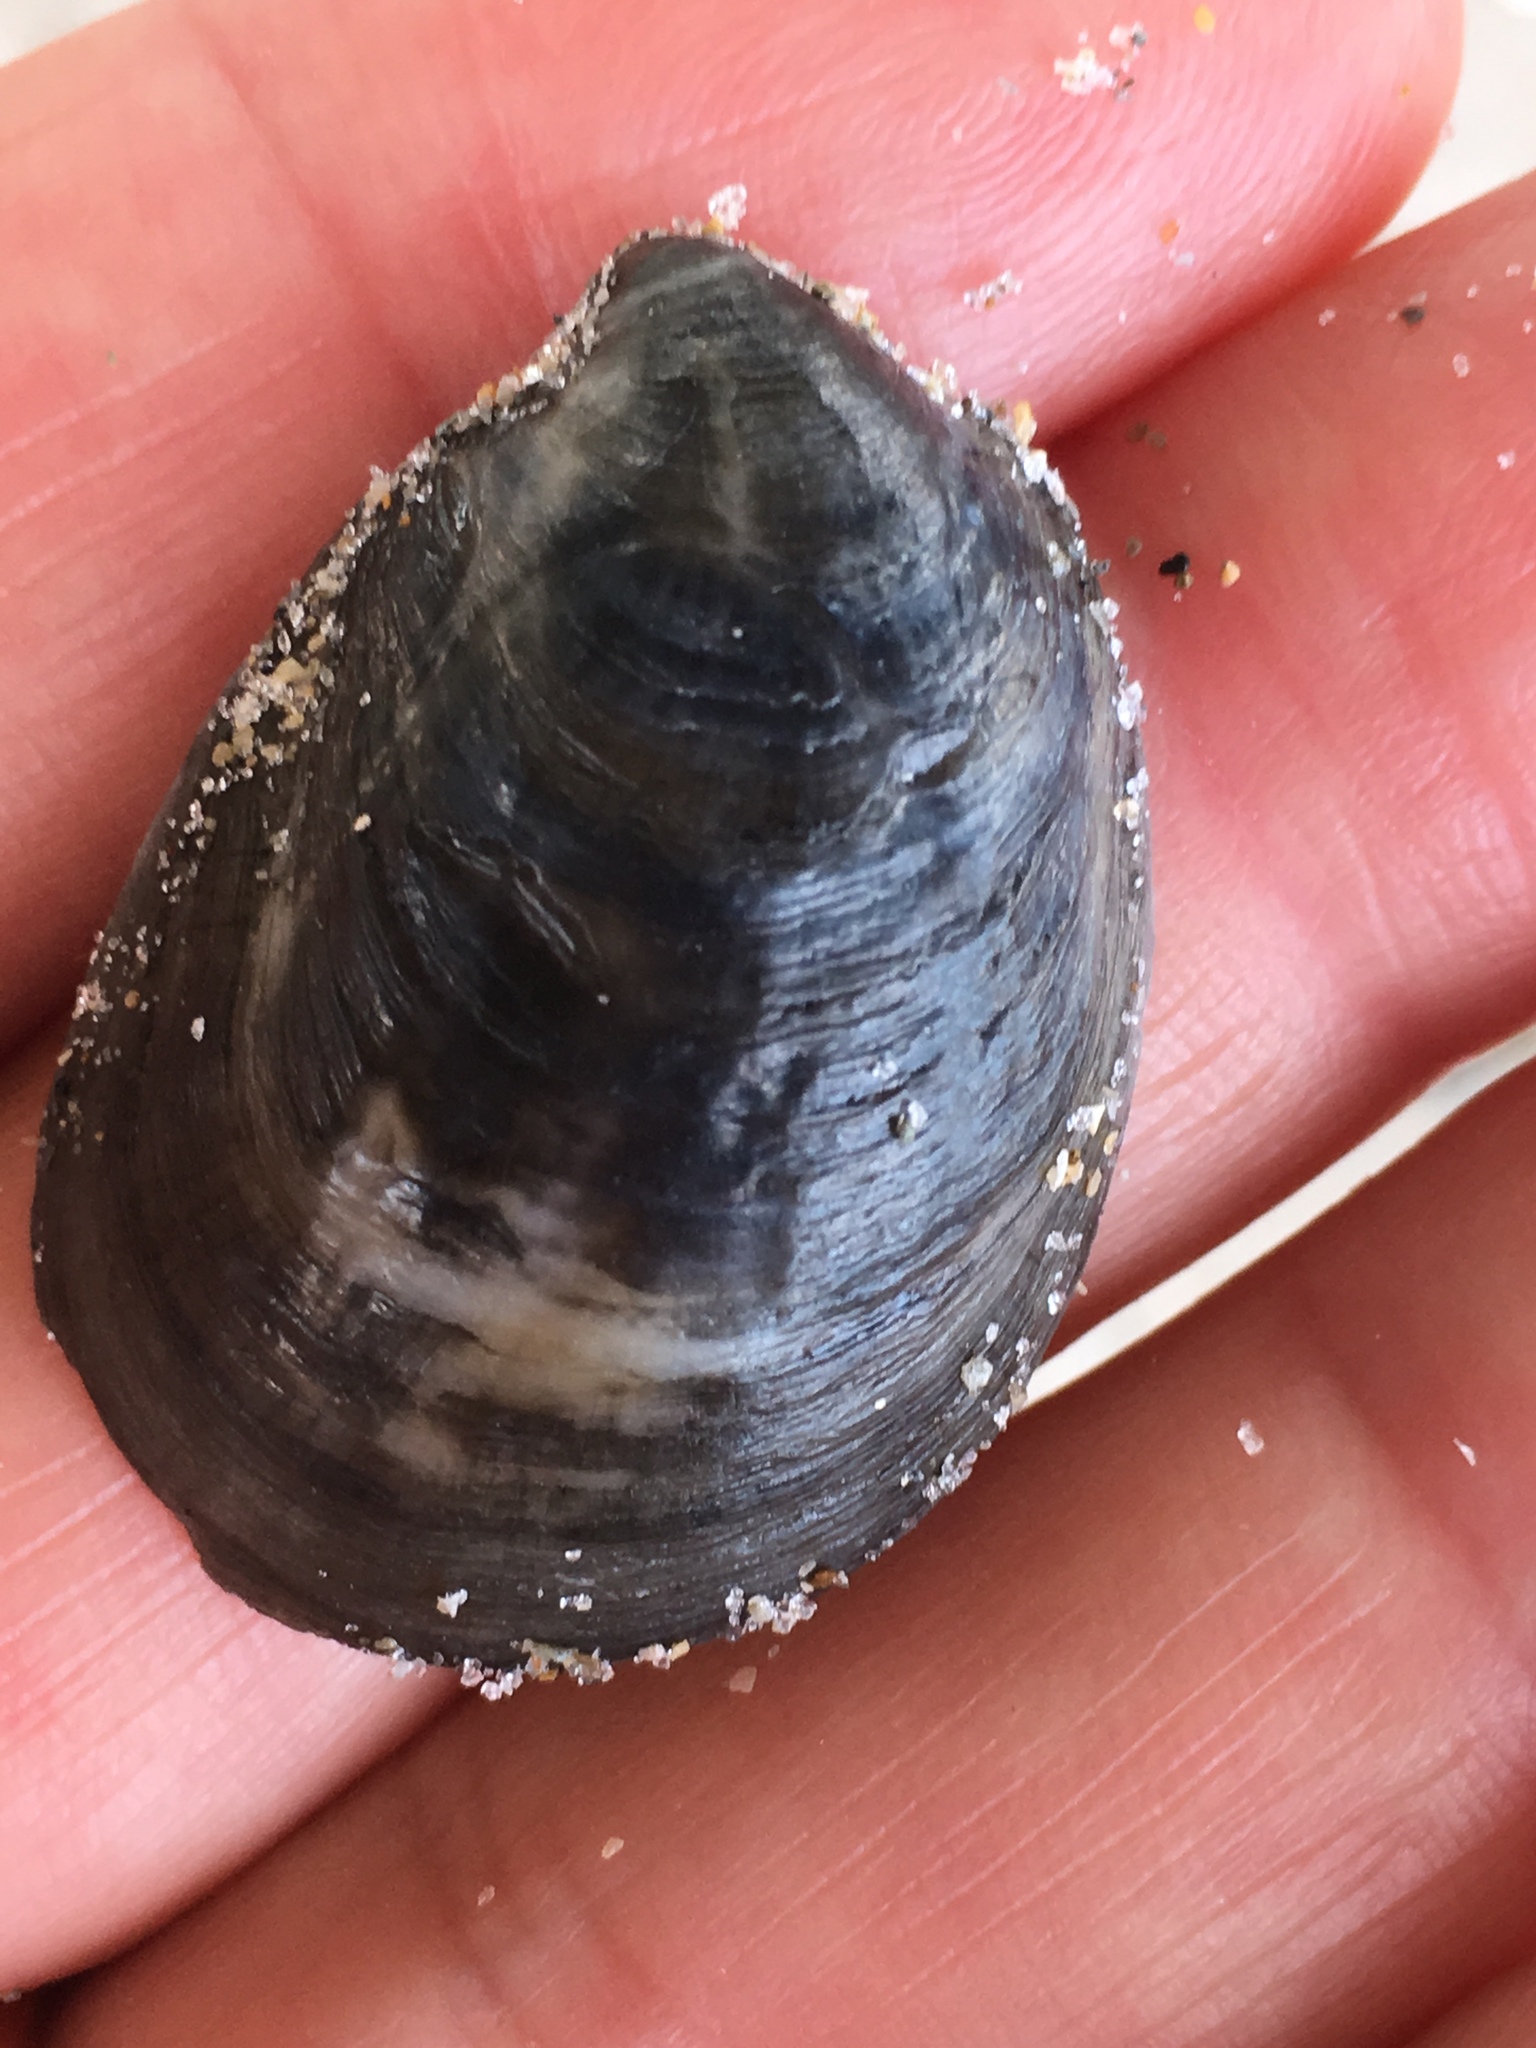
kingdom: Animalia
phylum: Mollusca
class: Gastropoda
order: Littorinimorpha
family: Calyptraeidae
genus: Crepidula
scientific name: Crepidula fornicata
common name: Slipper limpet
